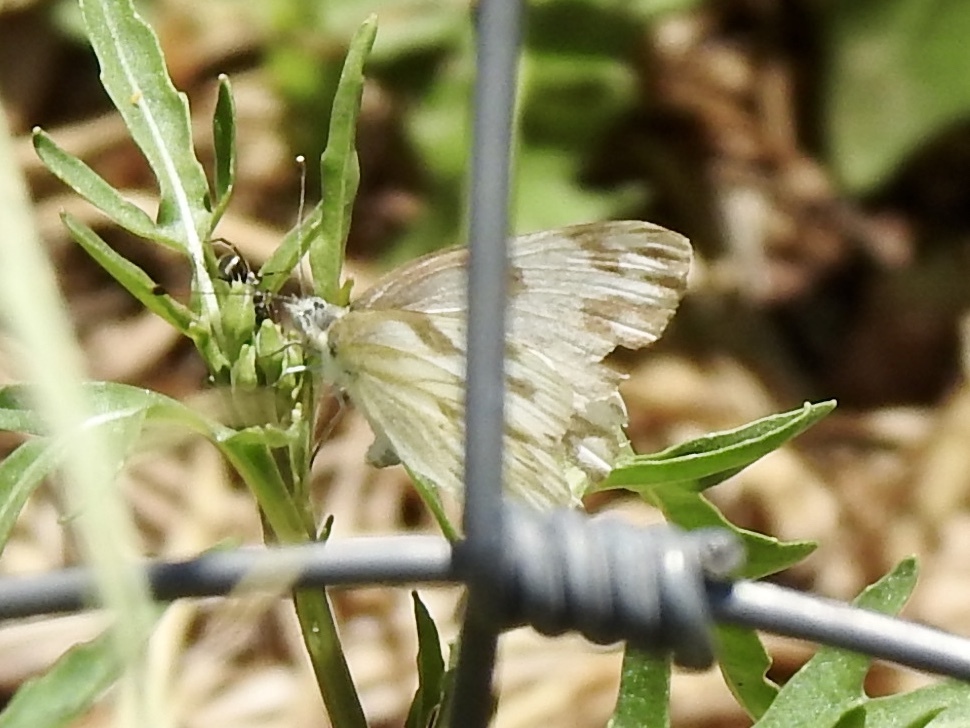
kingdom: Animalia
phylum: Arthropoda
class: Insecta
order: Lepidoptera
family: Pieridae
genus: Pontia
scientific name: Pontia protodice
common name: Checkered white
